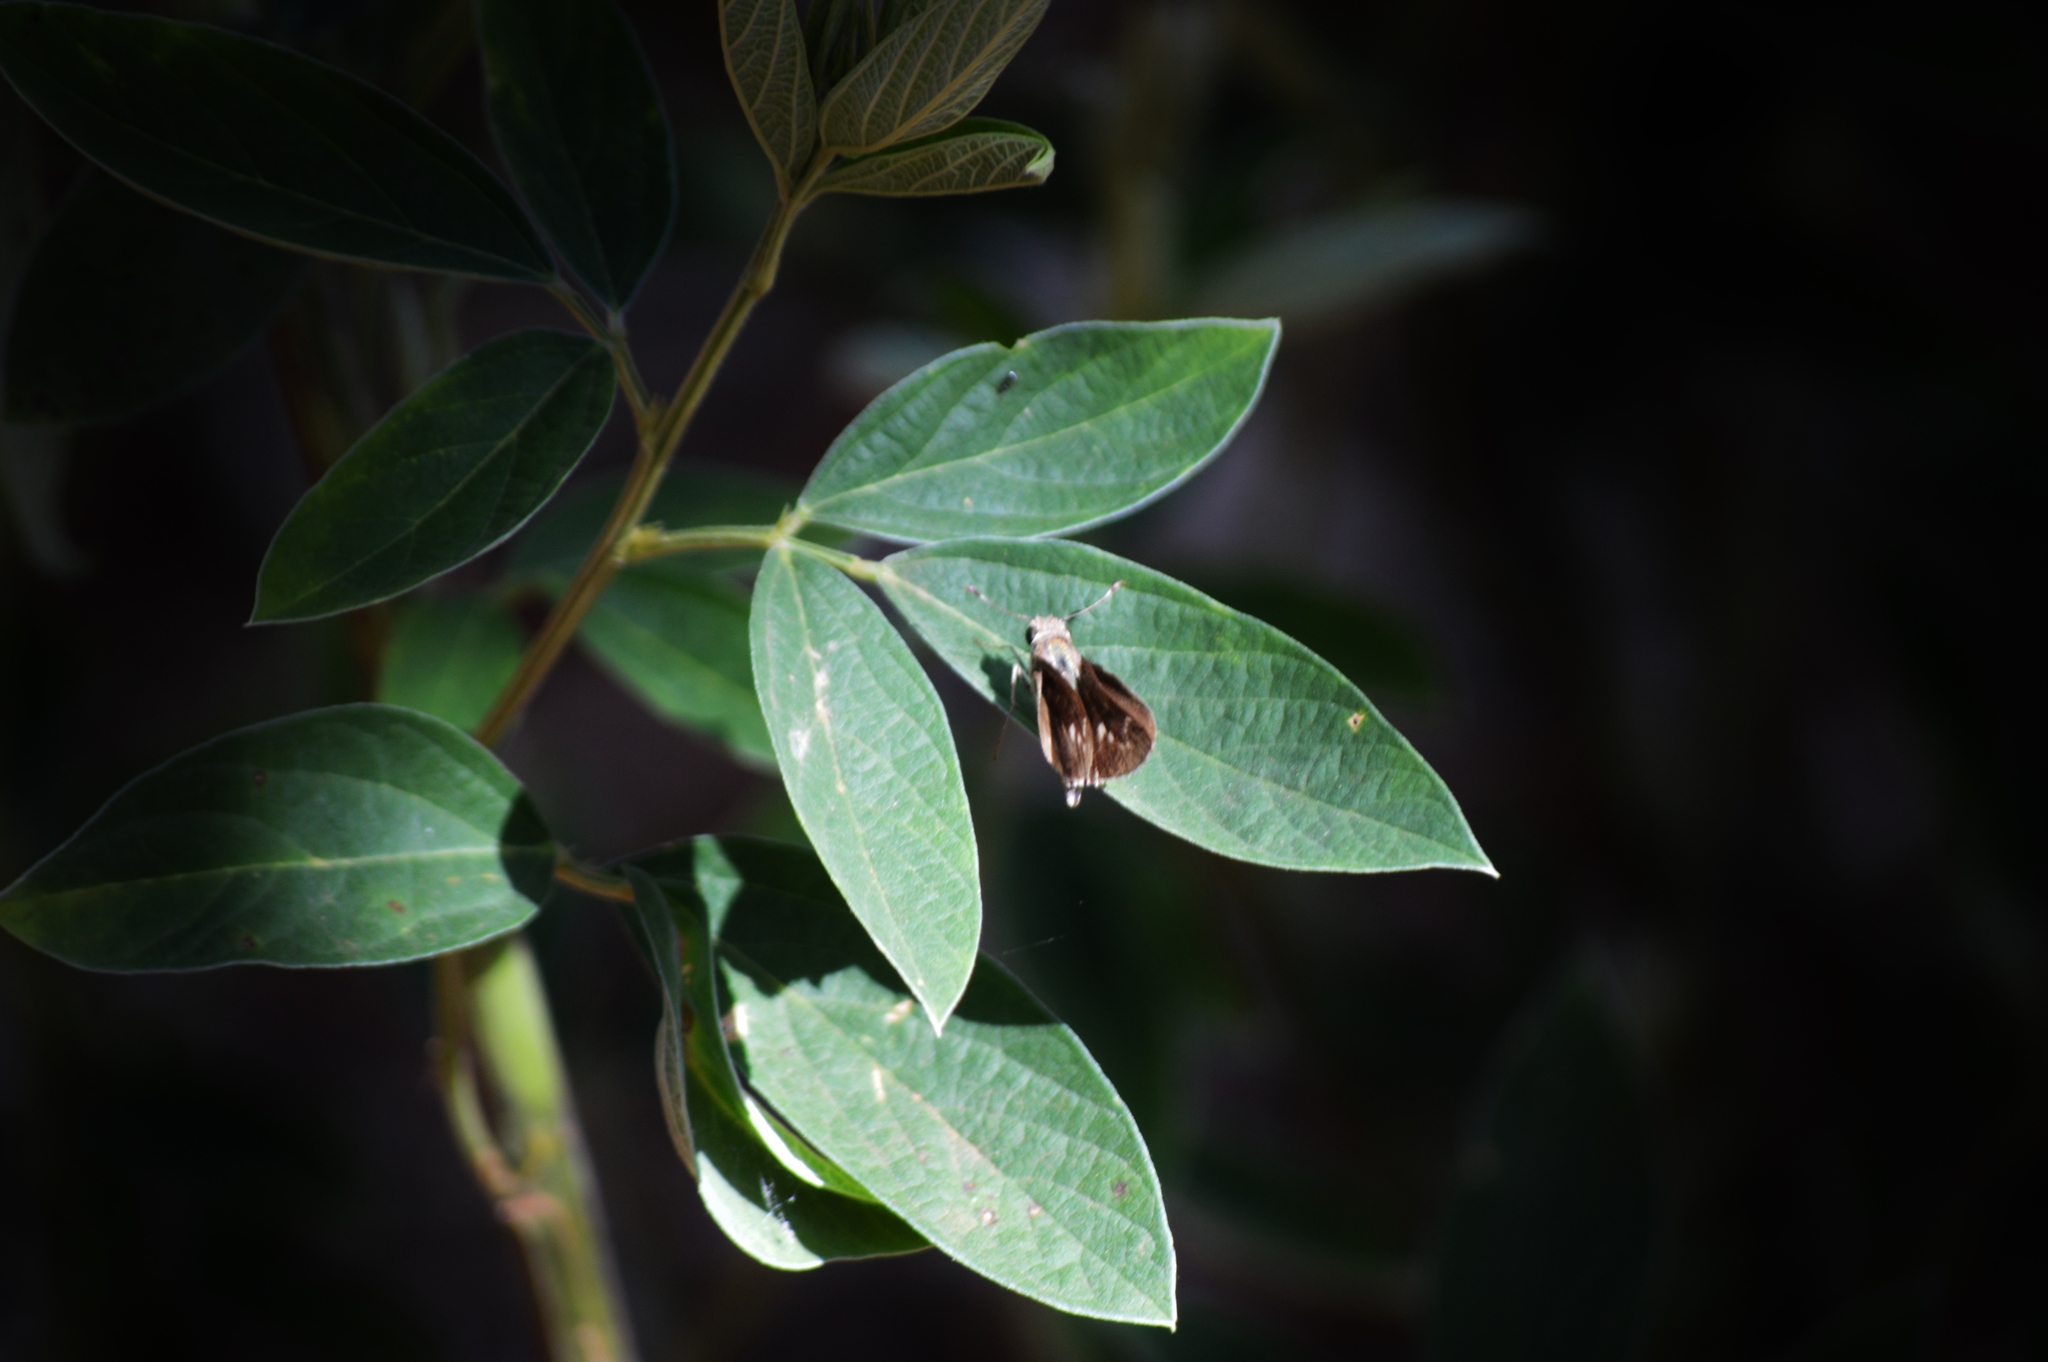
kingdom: Animalia
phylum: Arthropoda
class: Insecta
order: Lepidoptera
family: Hesperiidae
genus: Pompeius
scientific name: Pompeius pompeius
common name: Pompeius skipper
